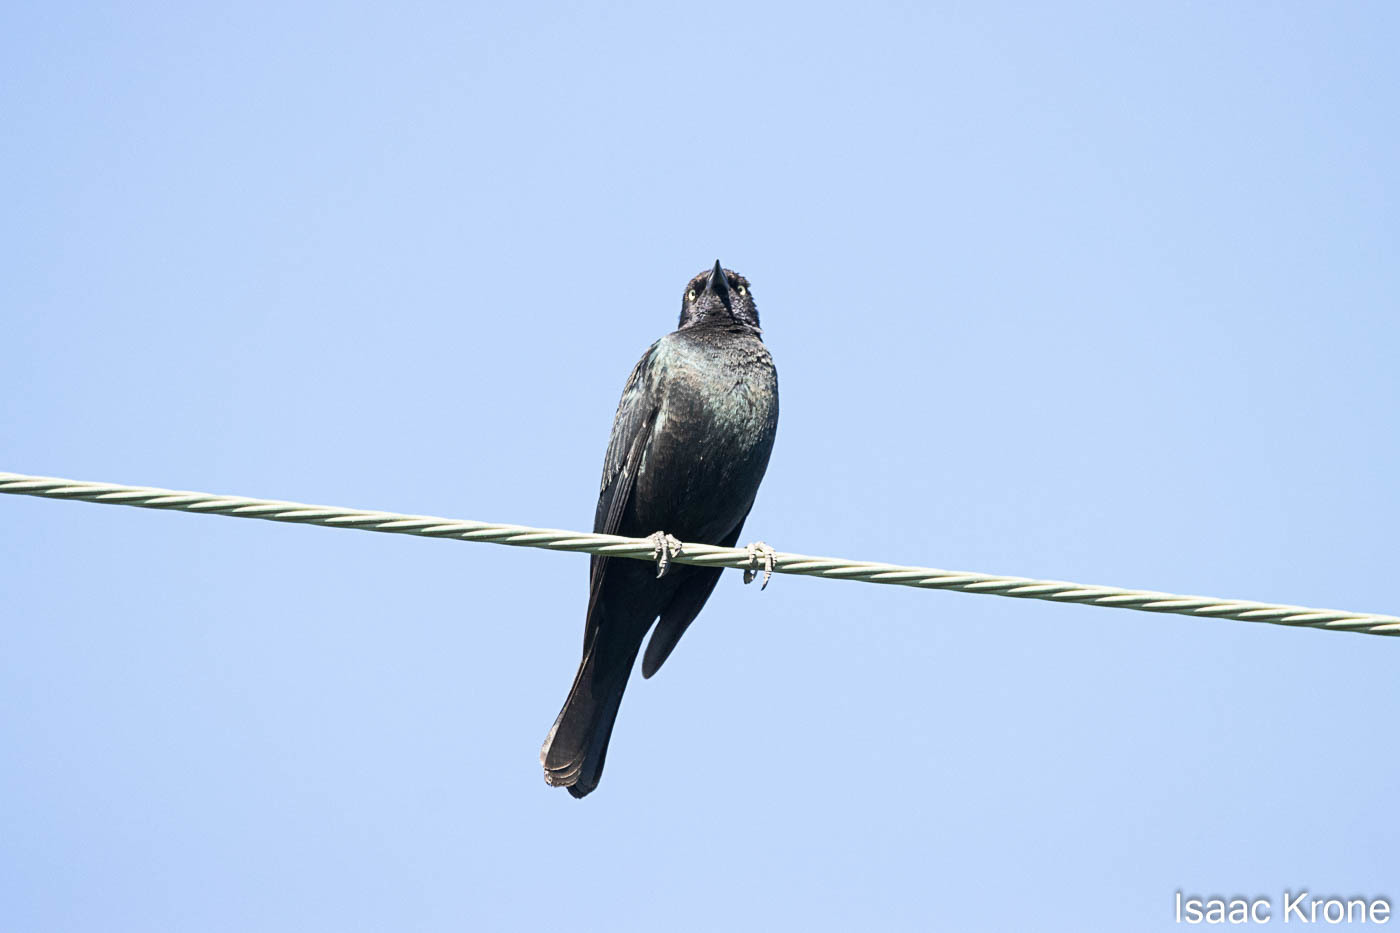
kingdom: Animalia
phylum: Chordata
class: Aves
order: Passeriformes
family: Icteridae
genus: Euphagus
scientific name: Euphagus cyanocephalus
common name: Brewer's blackbird
